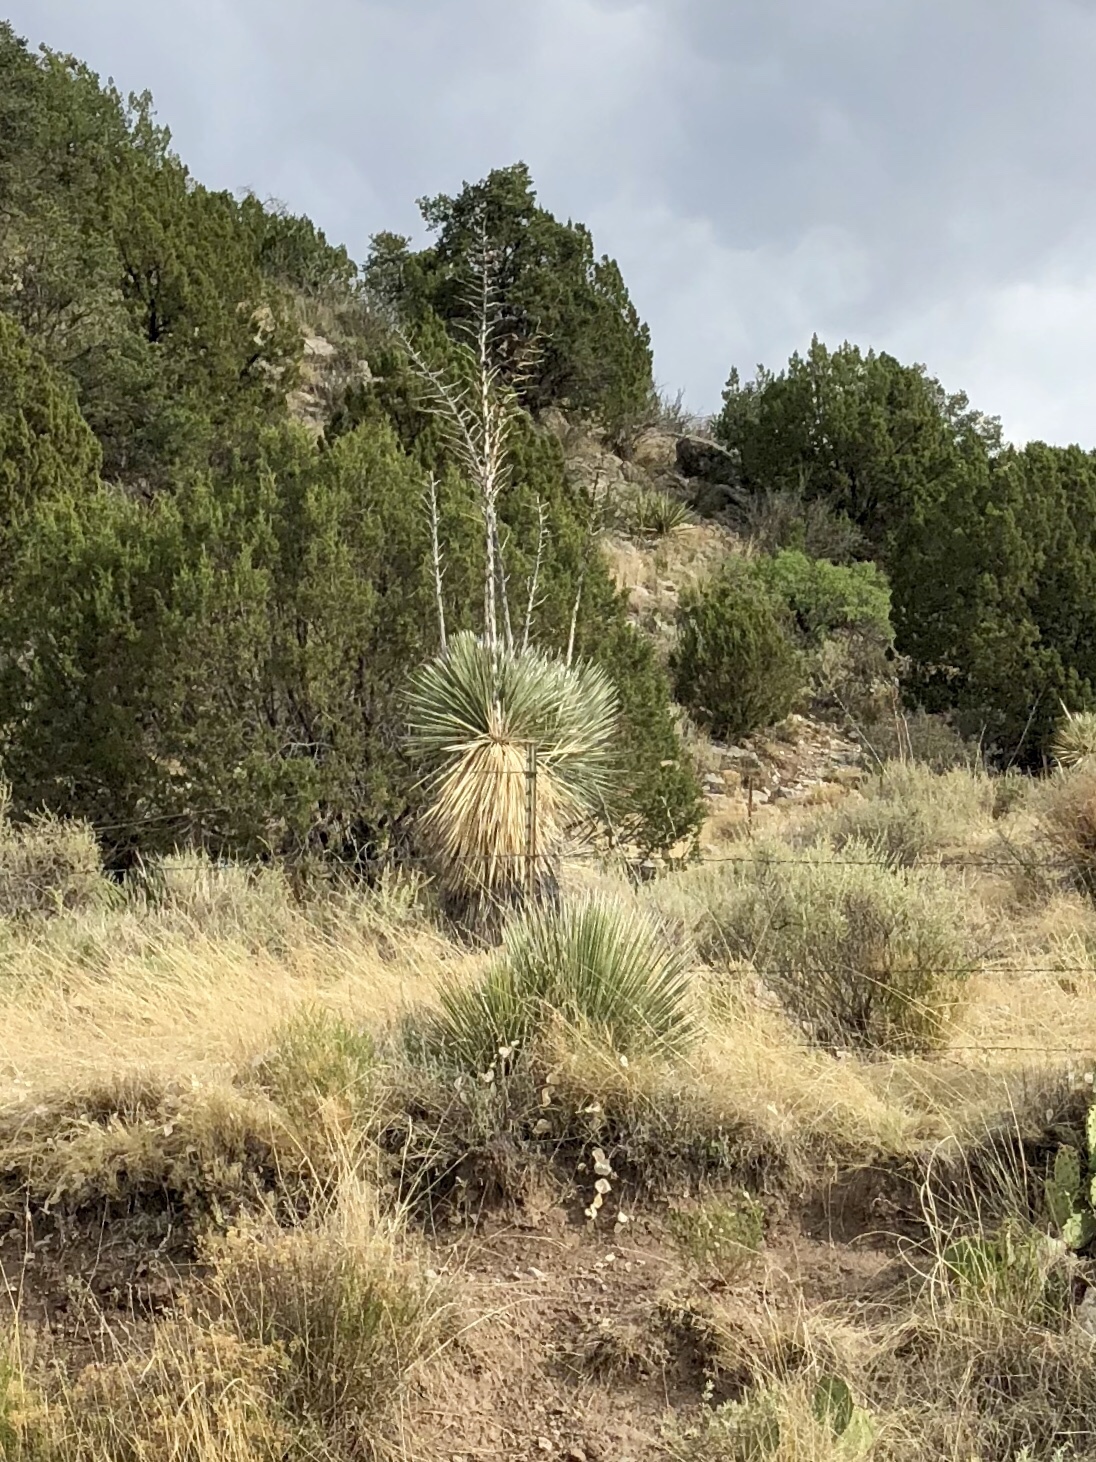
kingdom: Plantae
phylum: Tracheophyta
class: Liliopsida
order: Asparagales
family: Asparagaceae
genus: Yucca
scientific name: Yucca elata
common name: Palmella
